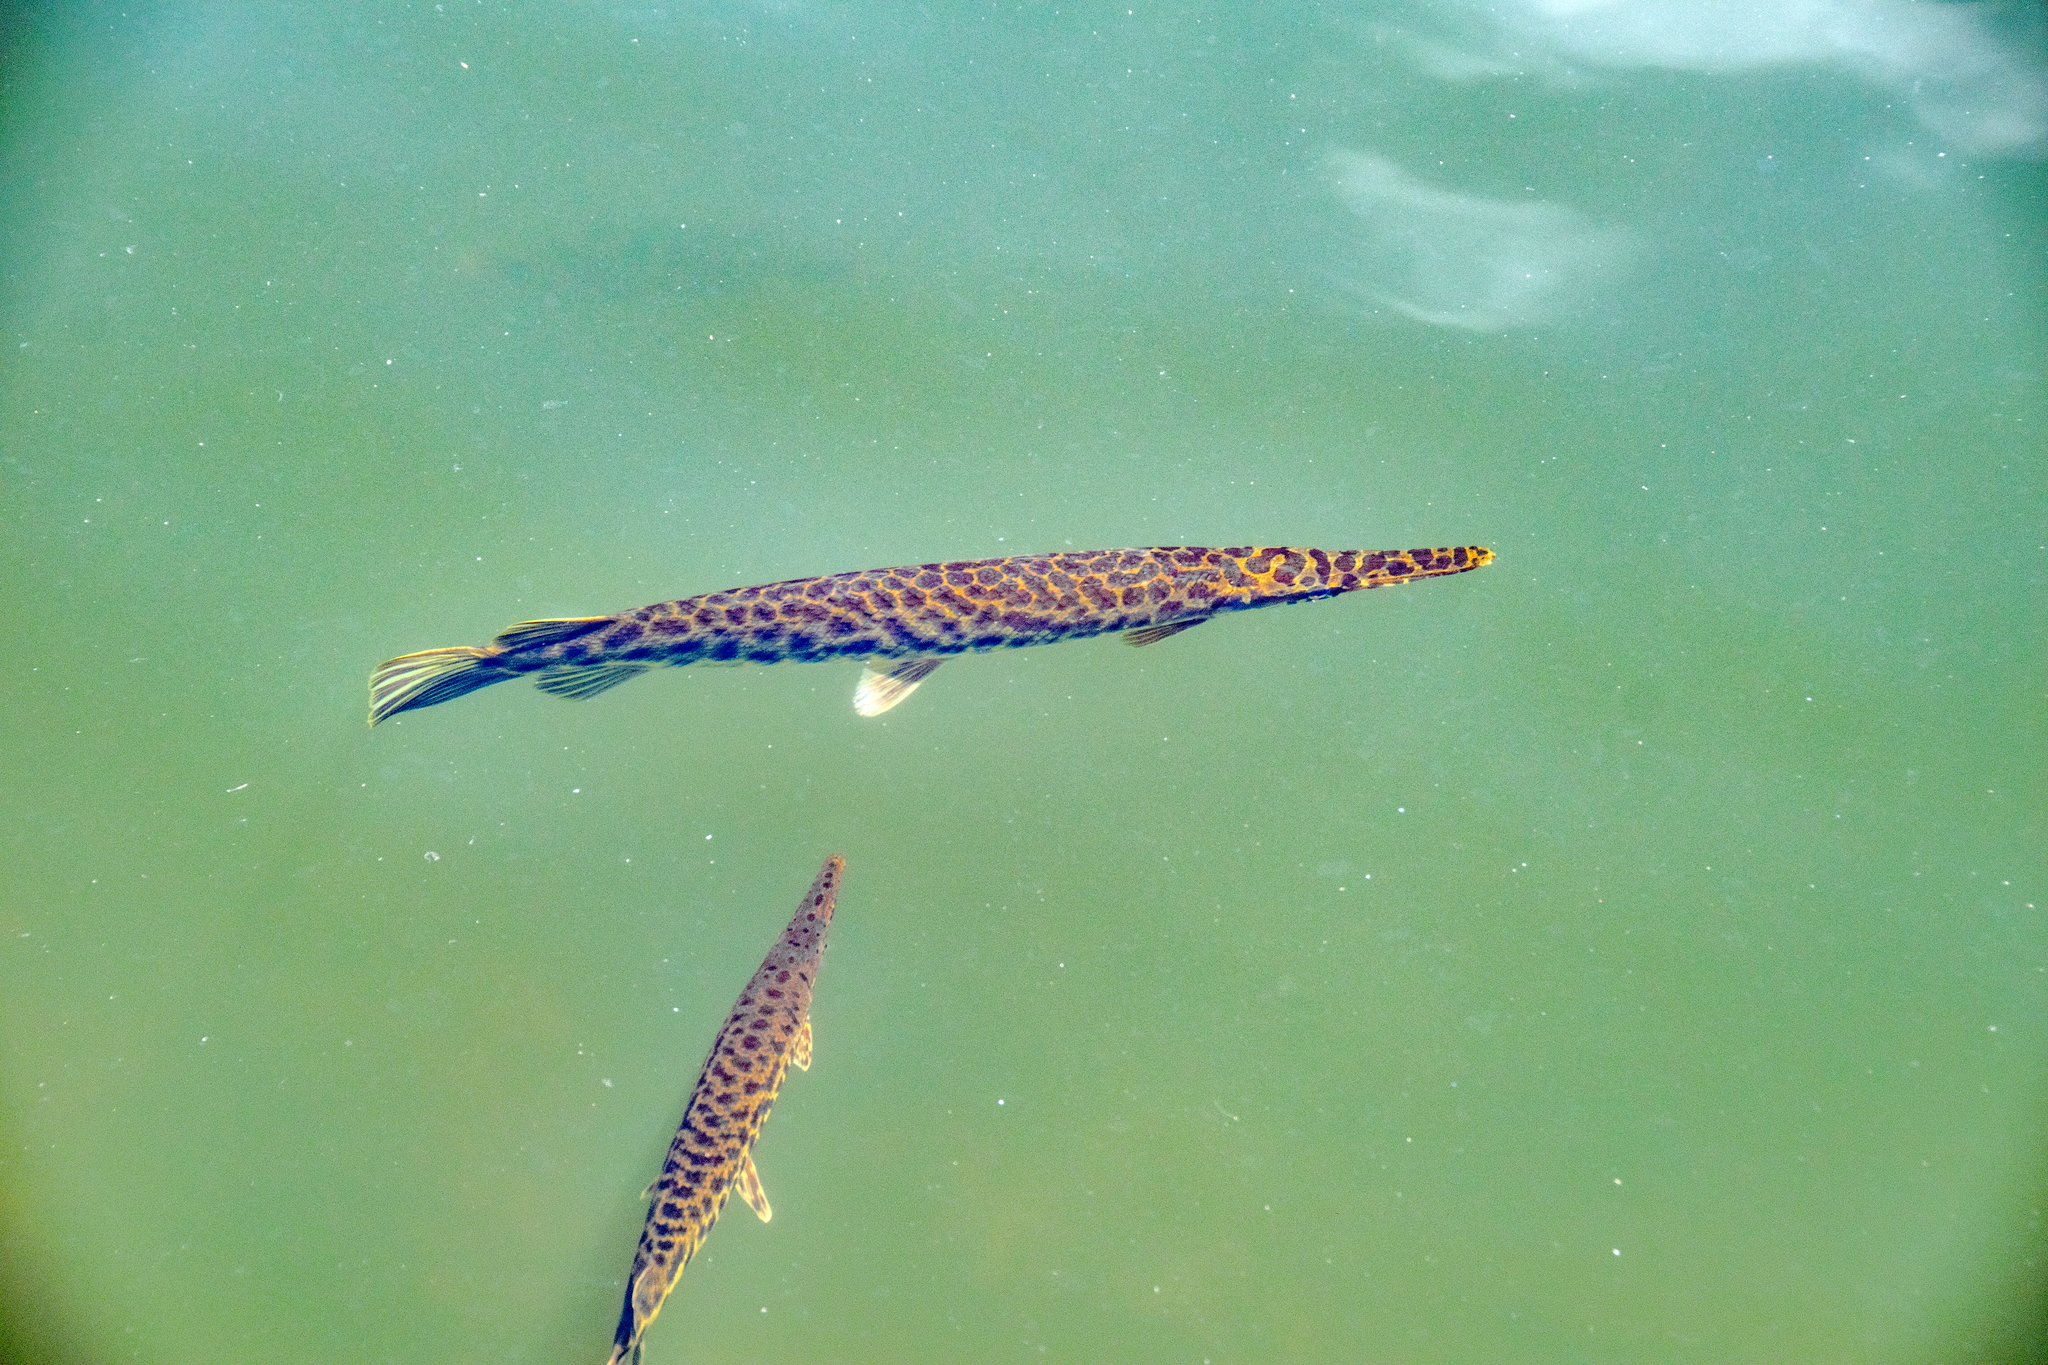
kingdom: Animalia
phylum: Chordata
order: Lepisosteiformes
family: Lepisosteidae
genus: Lepisosteus
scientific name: Lepisosteus platyrhincus
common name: Florida gar
